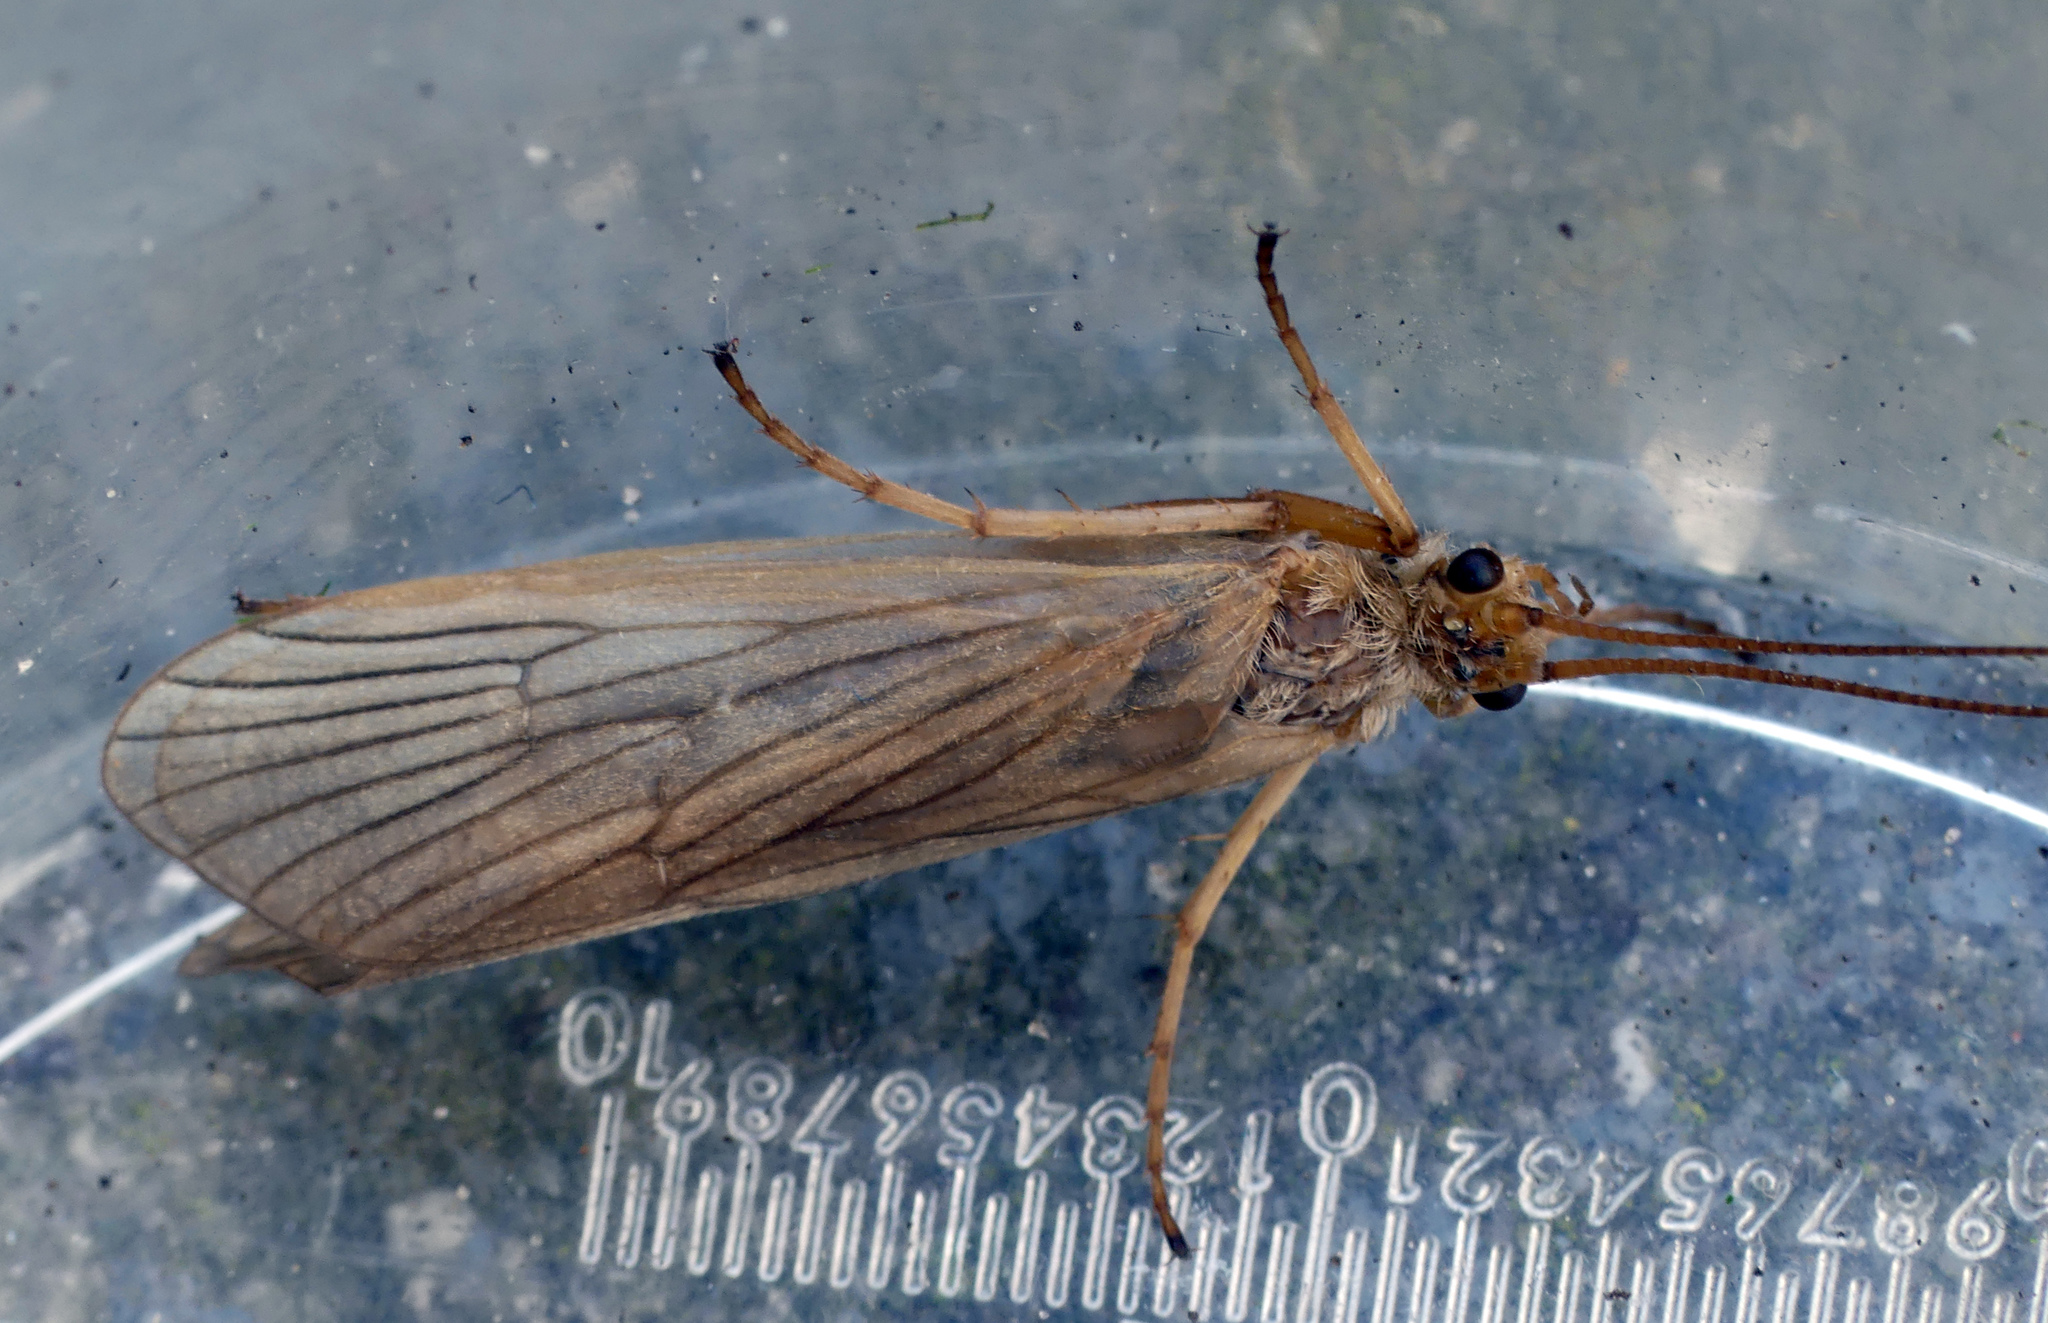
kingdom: Animalia
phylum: Arthropoda
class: Insecta
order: Trichoptera
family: Phryganeidae
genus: Agrypnia
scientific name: Agrypnia pagetana
